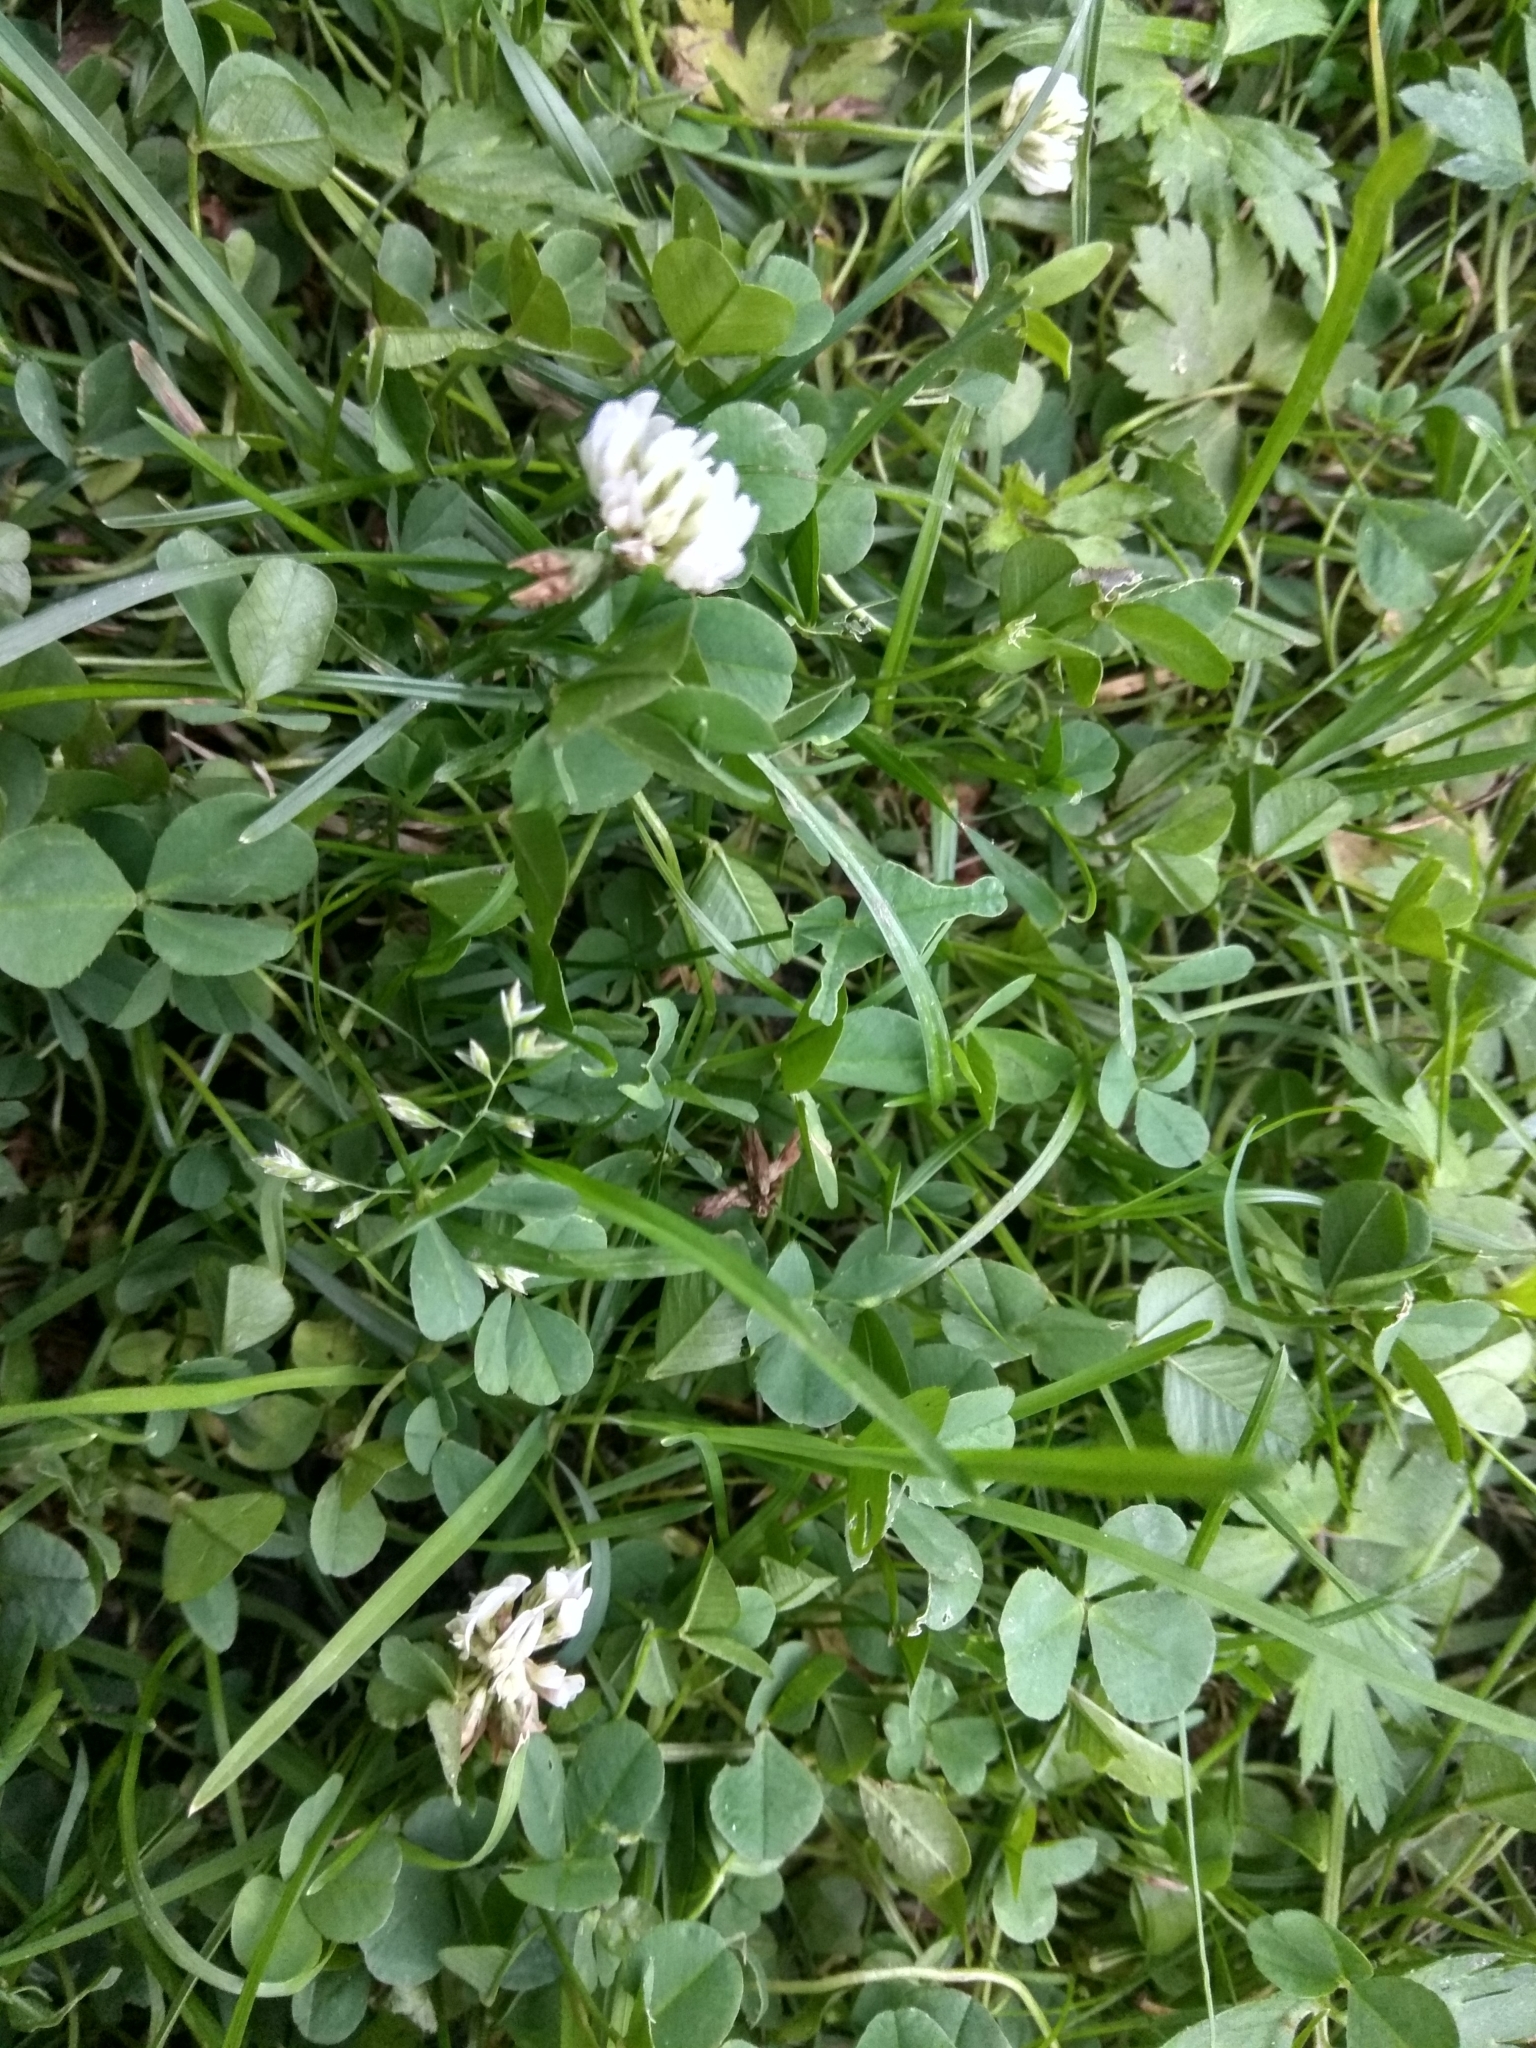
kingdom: Plantae
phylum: Tracheophyta
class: Magnoliopsida
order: Fabales
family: Fabaceae
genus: Trifolium
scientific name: Trifolium repens
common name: White clover
